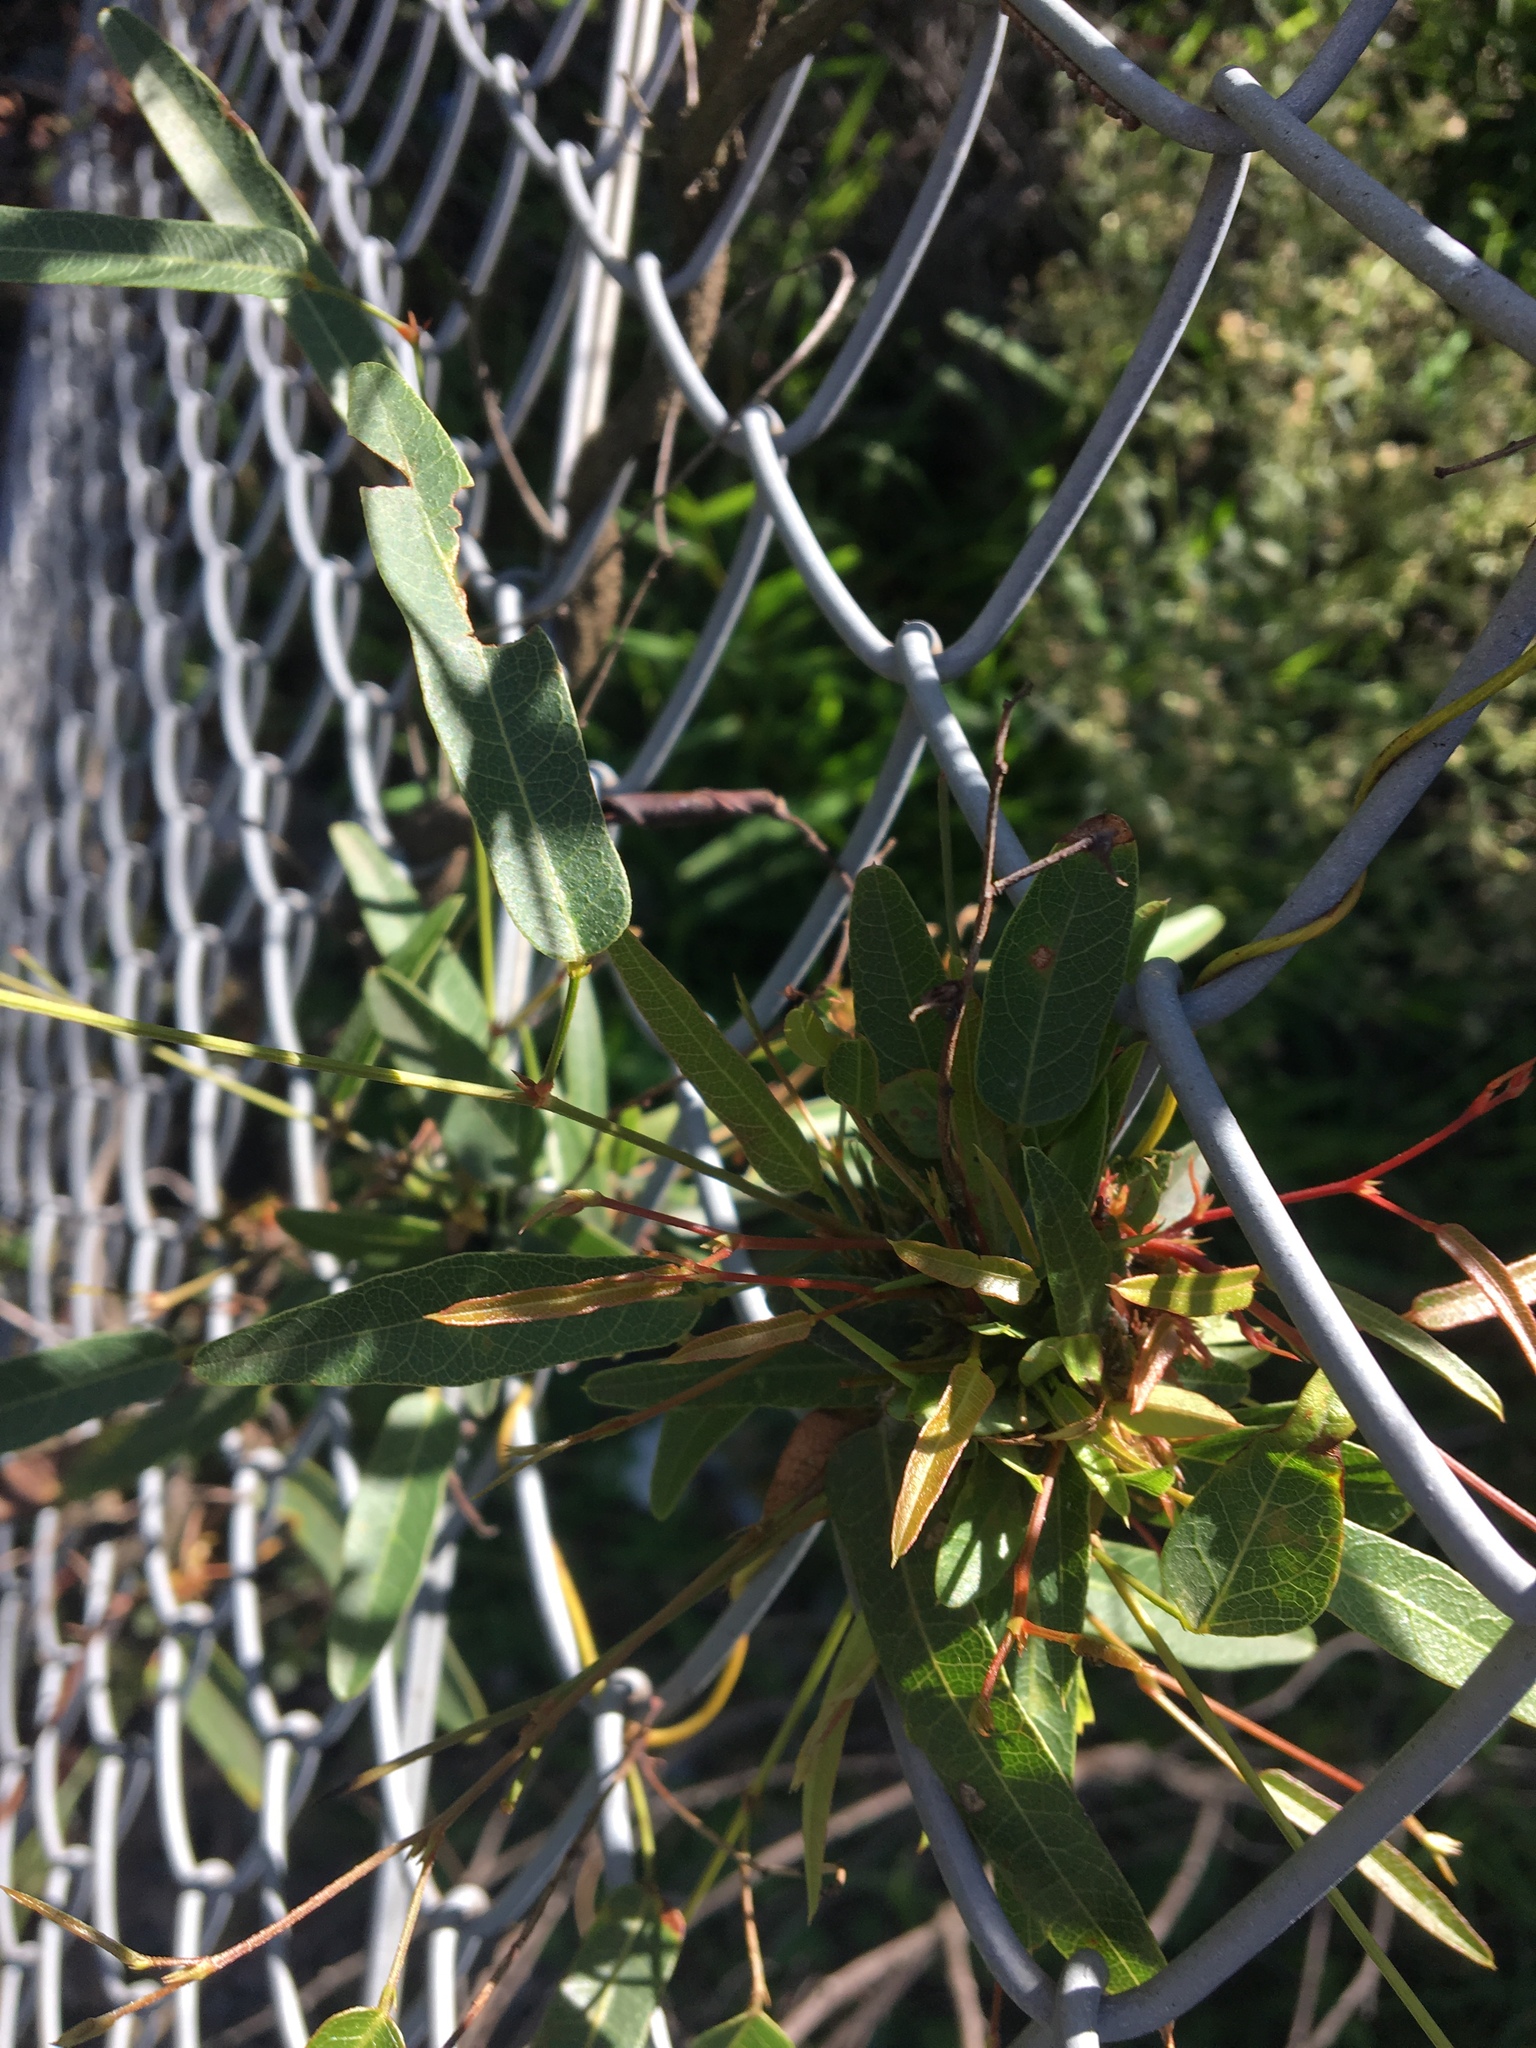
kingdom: Plantae
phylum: Tracheophyta
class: Magnoliopsida
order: Fabales
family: Fabaceae
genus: Hardenbergia
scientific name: Hardenbergia violacea
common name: Coral-pea
